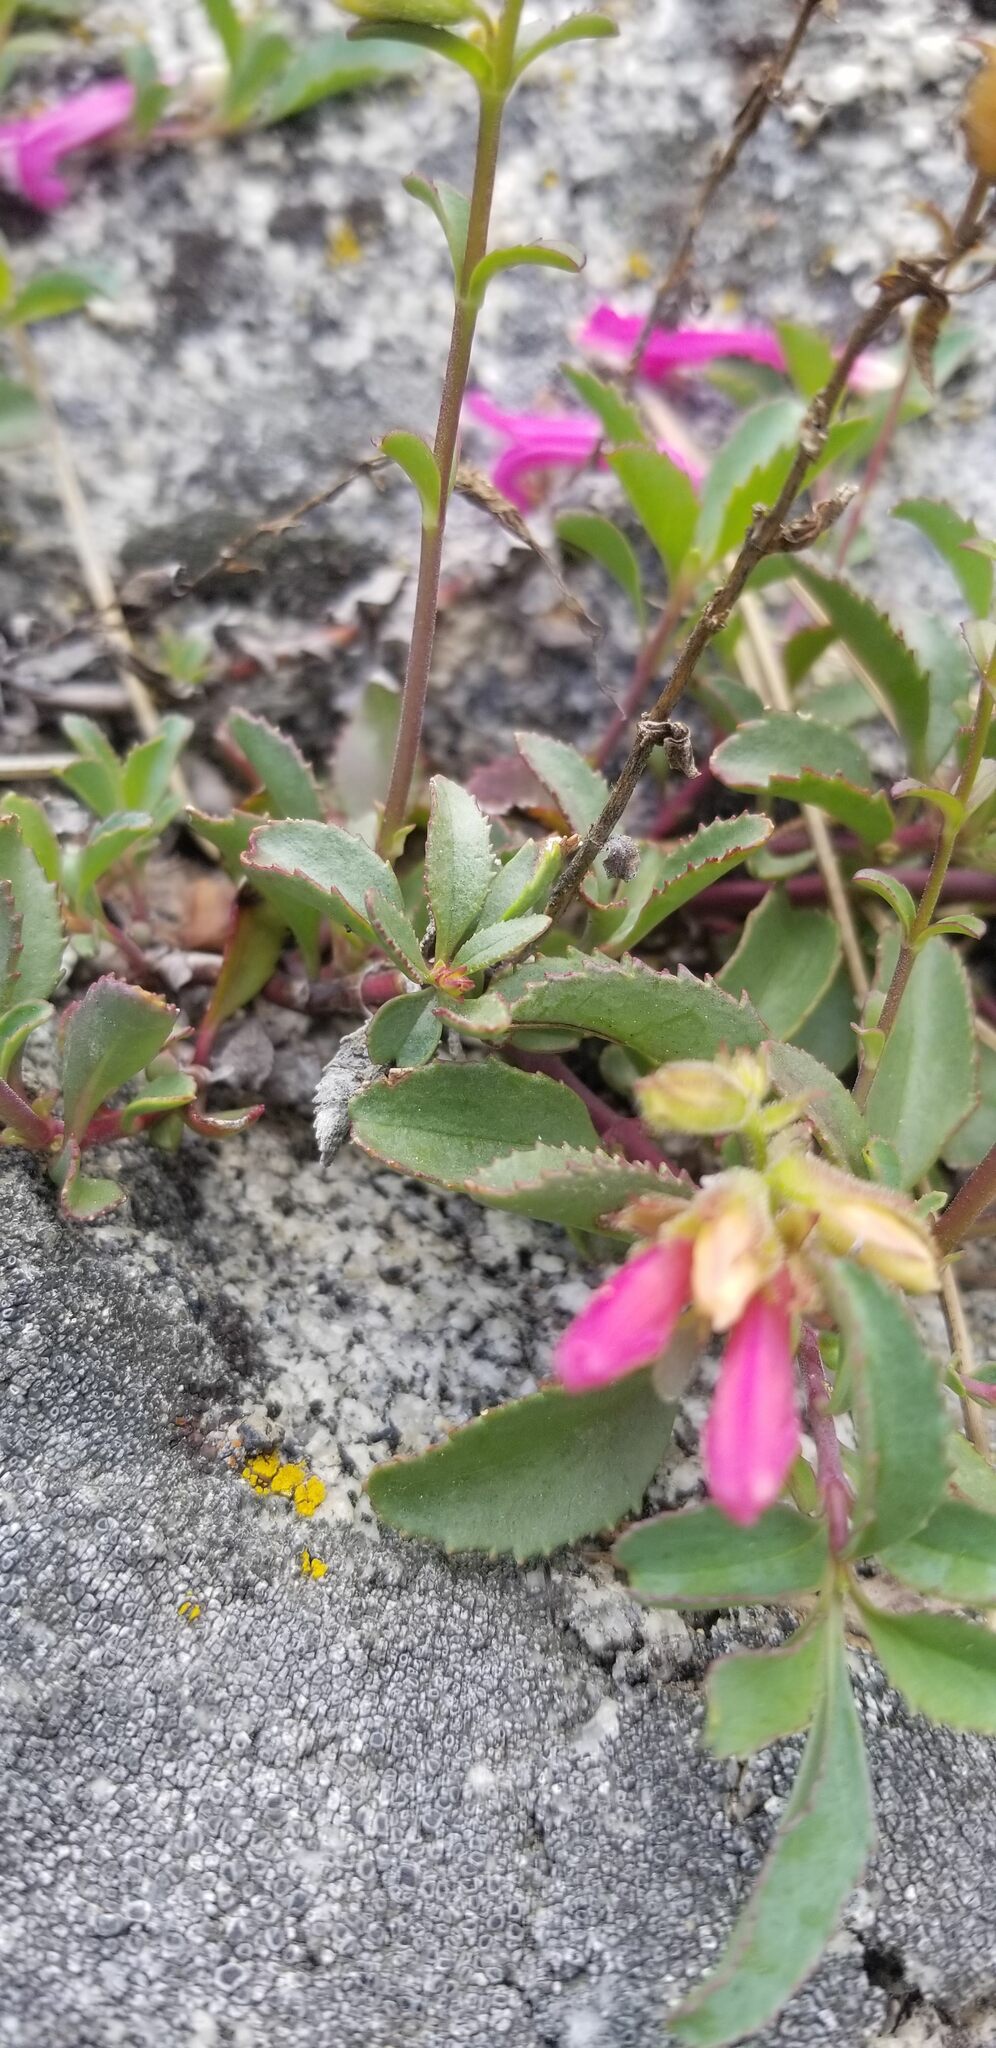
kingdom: Plantae
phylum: Tracheophyta
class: Magnoliopsida
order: Lamiales
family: Plantaginaceae
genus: Penstemon
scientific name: Penstemon newberryi
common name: Mountain-pride
